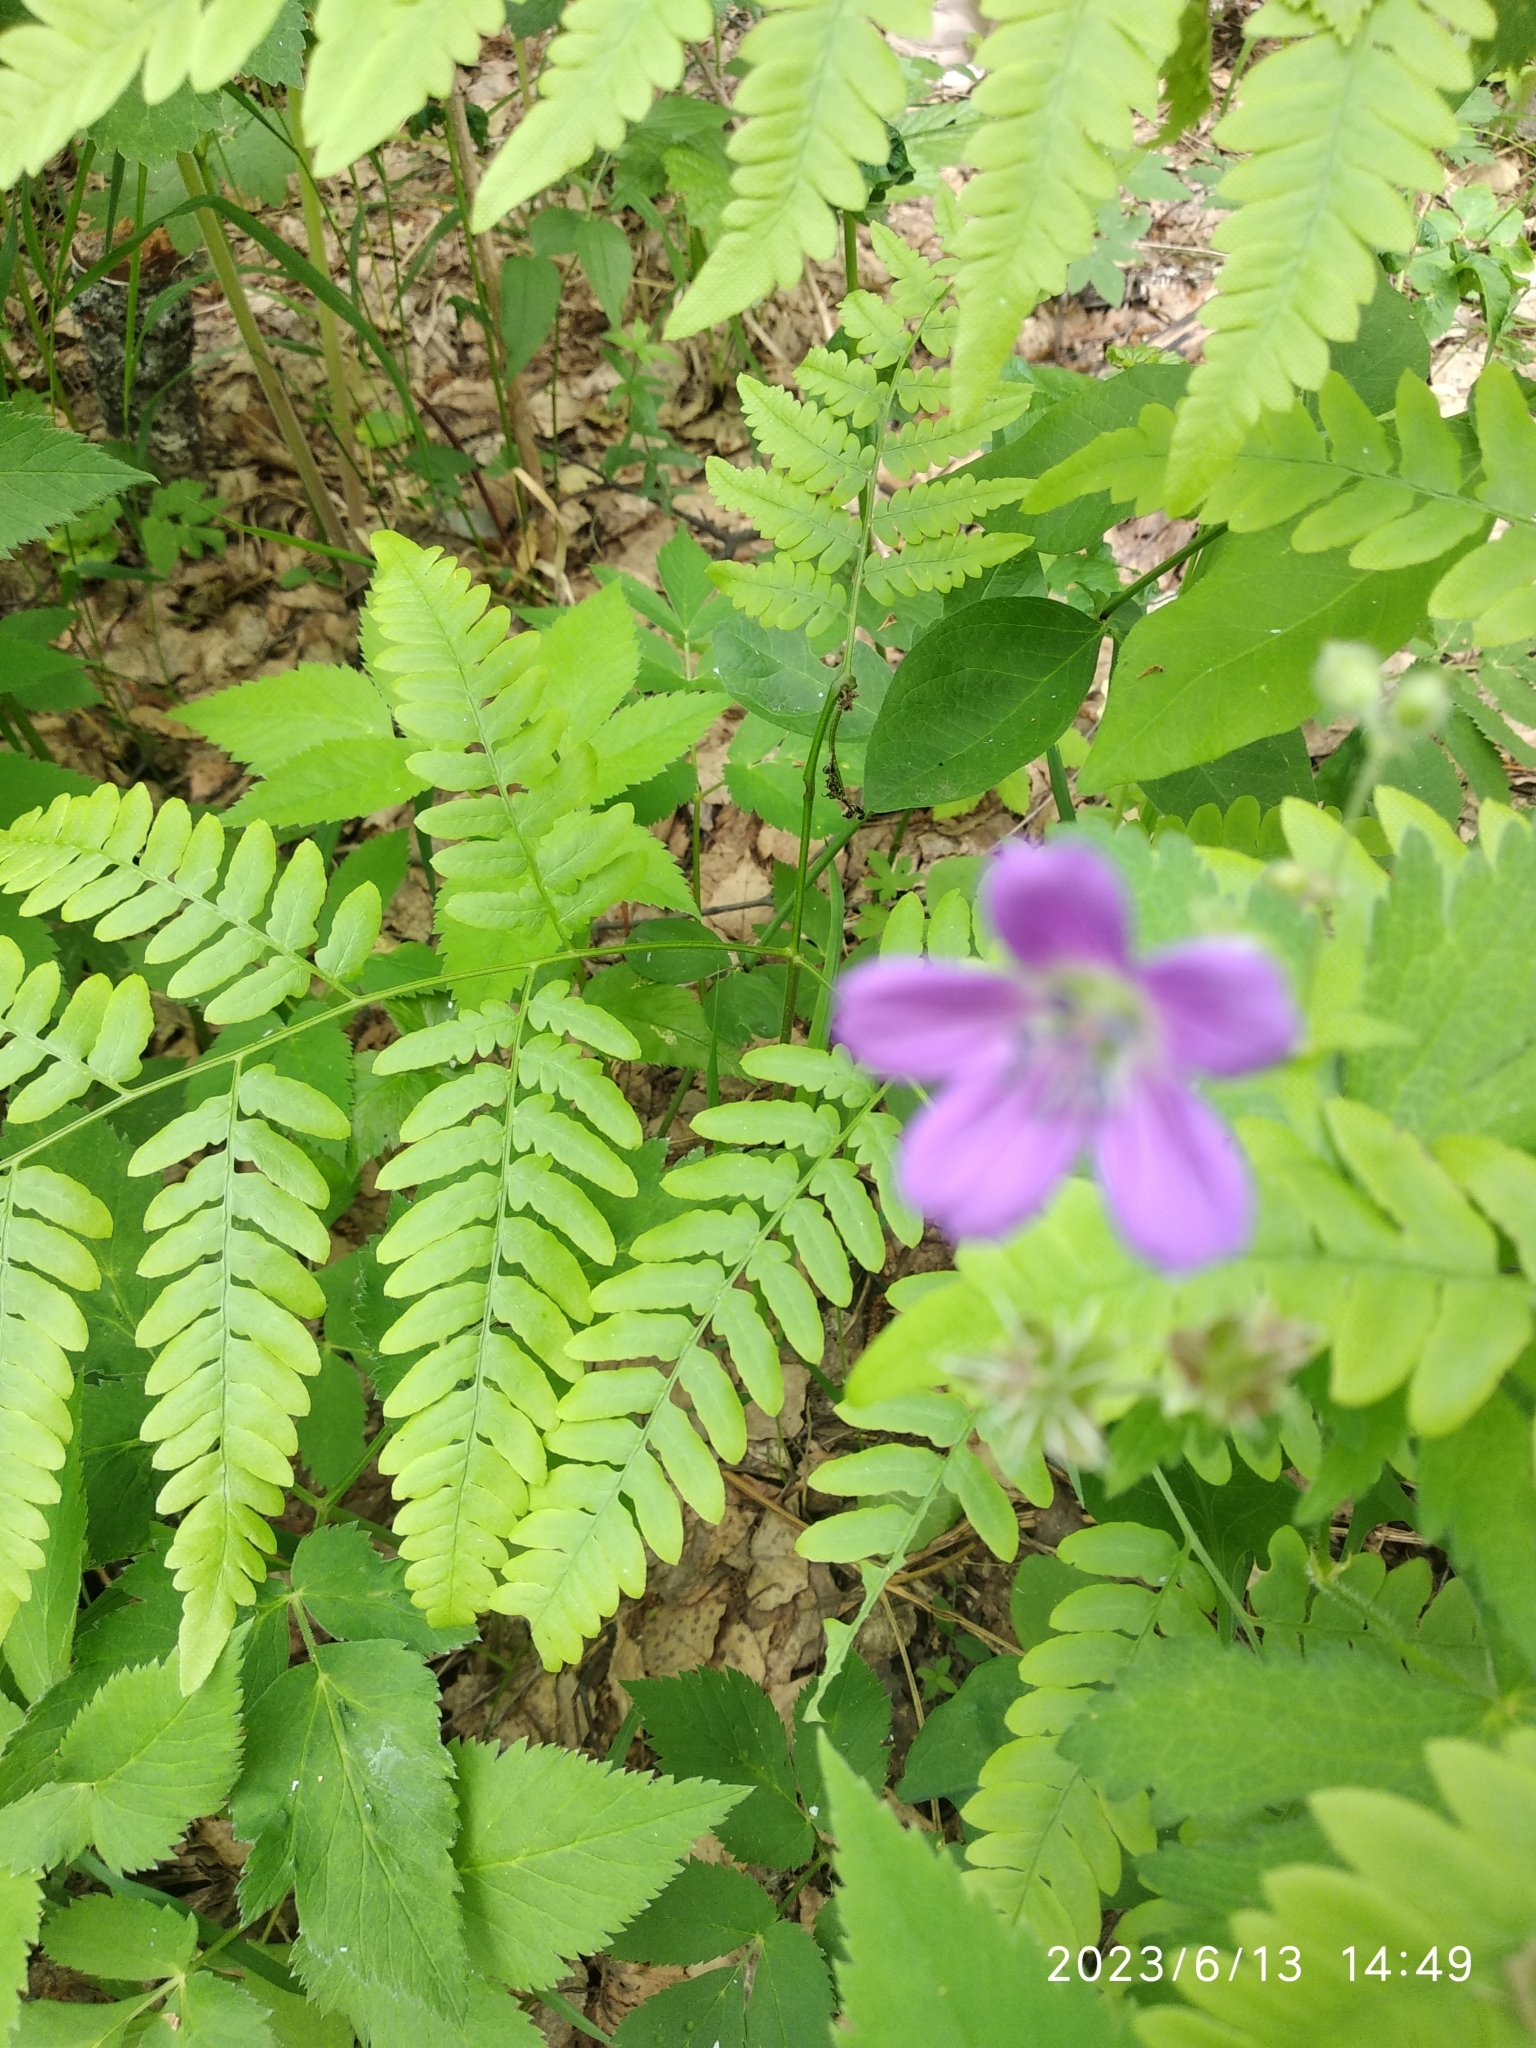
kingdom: Plantae
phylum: Tracheophyta
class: Magnoliopsida
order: Geraniales
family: Geraniaceae
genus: Geranium
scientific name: Geranium sylvaticum
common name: Wood crane's-bill
